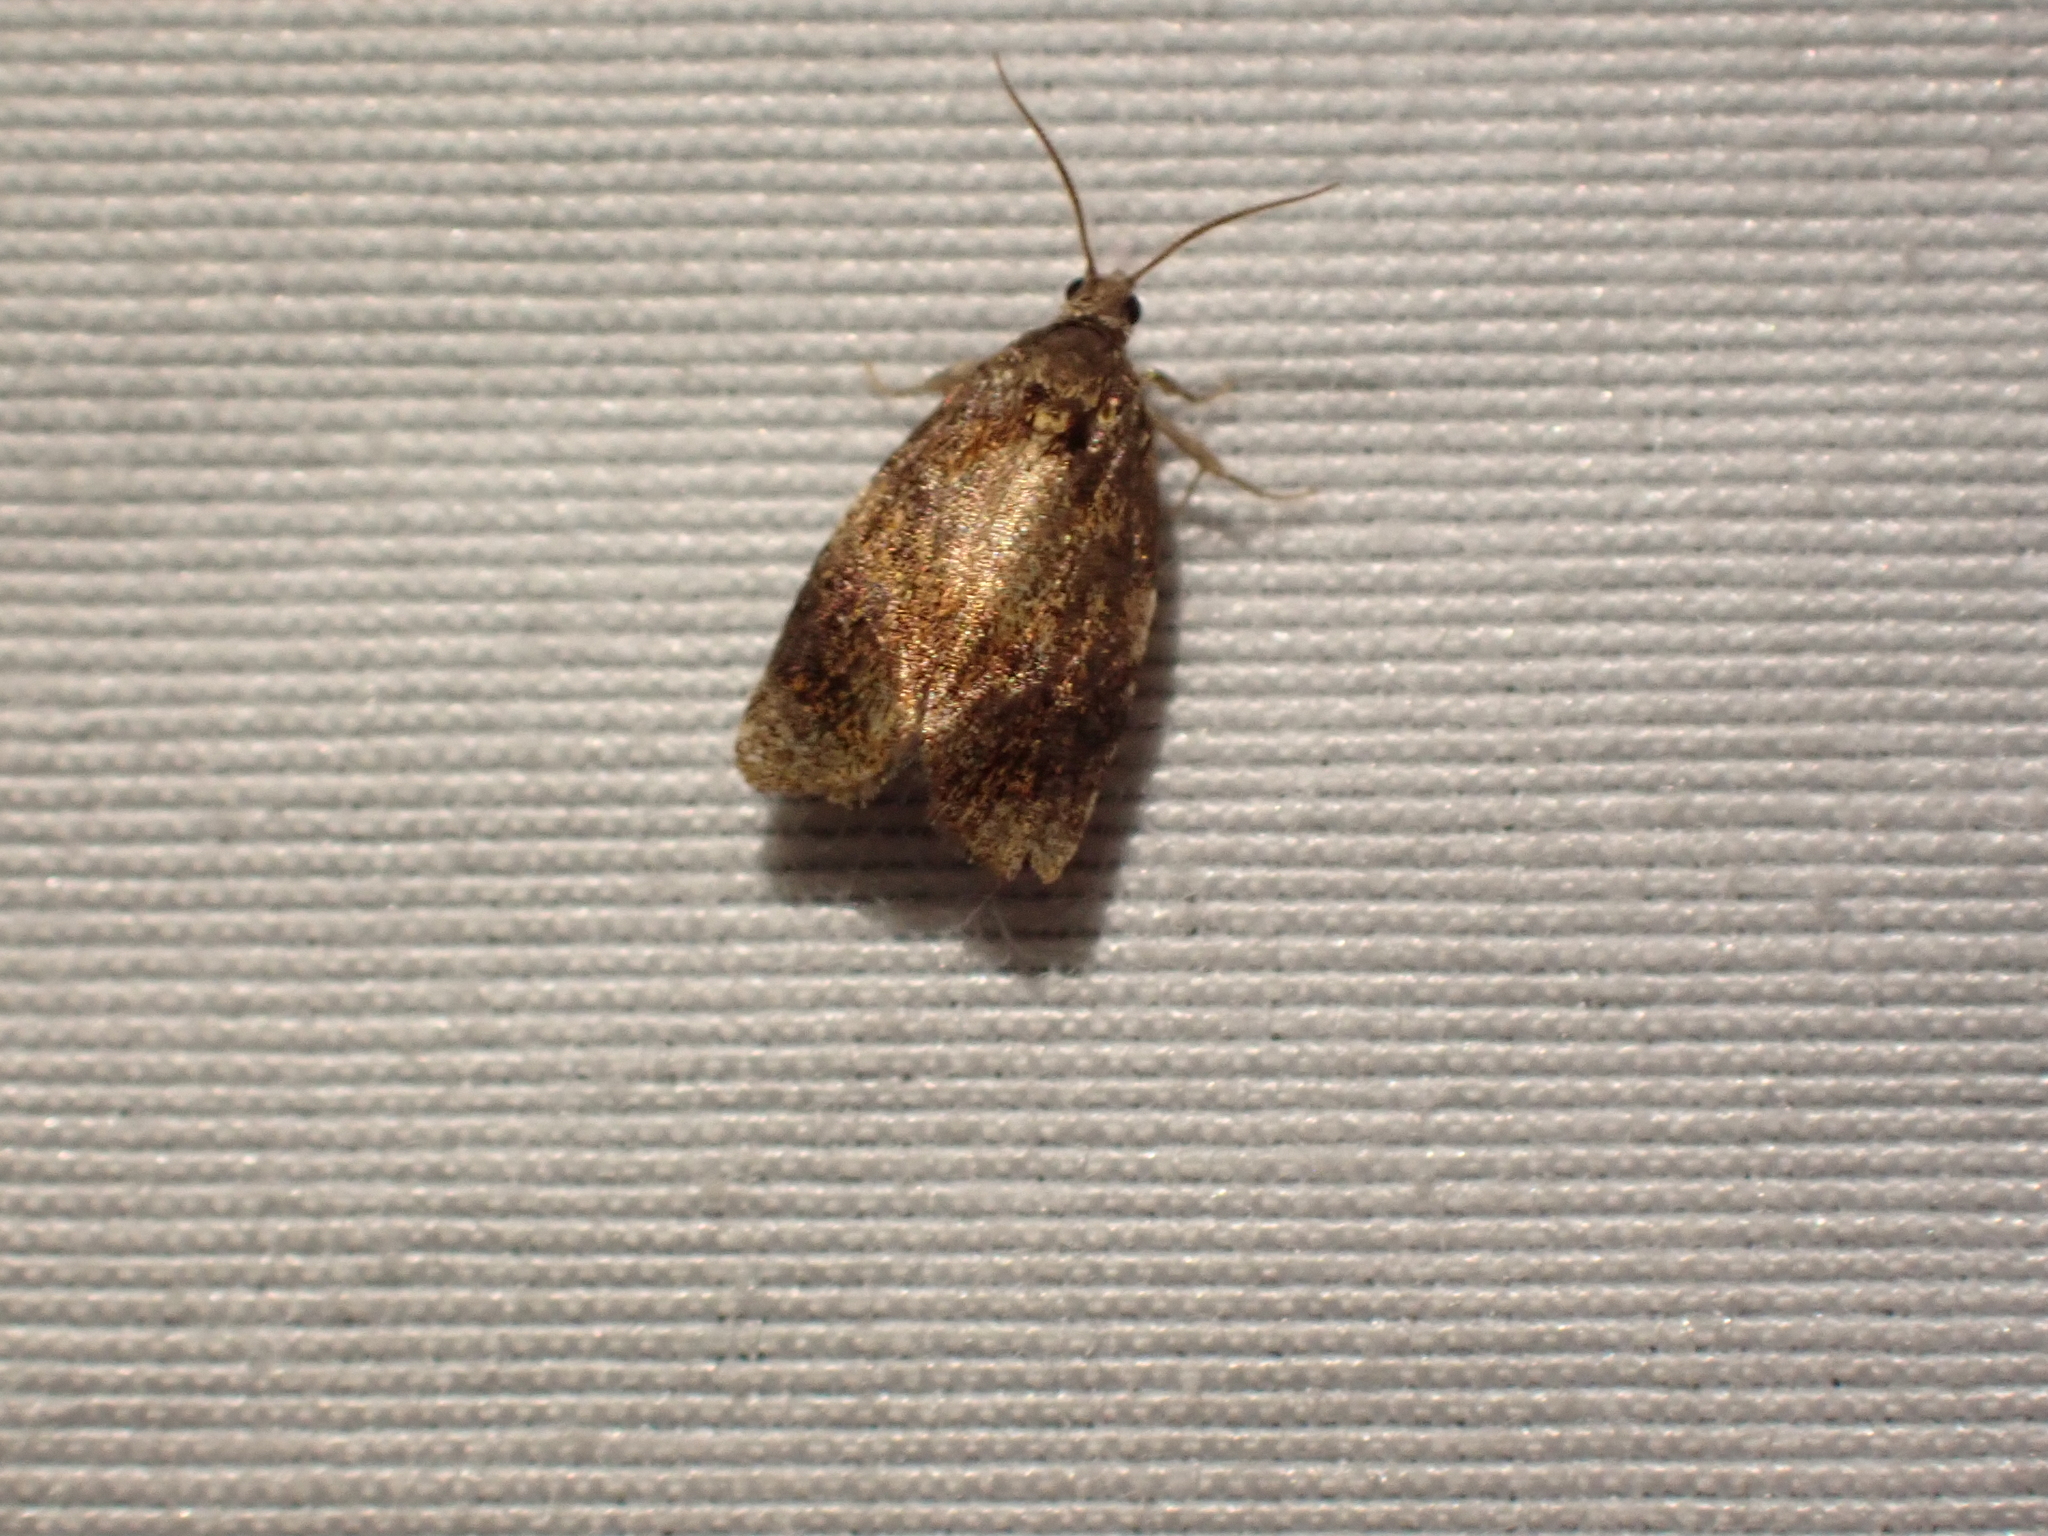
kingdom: Animalia
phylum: Arthropoda
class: Insecta
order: Lepidoptera
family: Tortricidae
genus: Ditula
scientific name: Ditula angustiorana
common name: Red-barred tortrix
